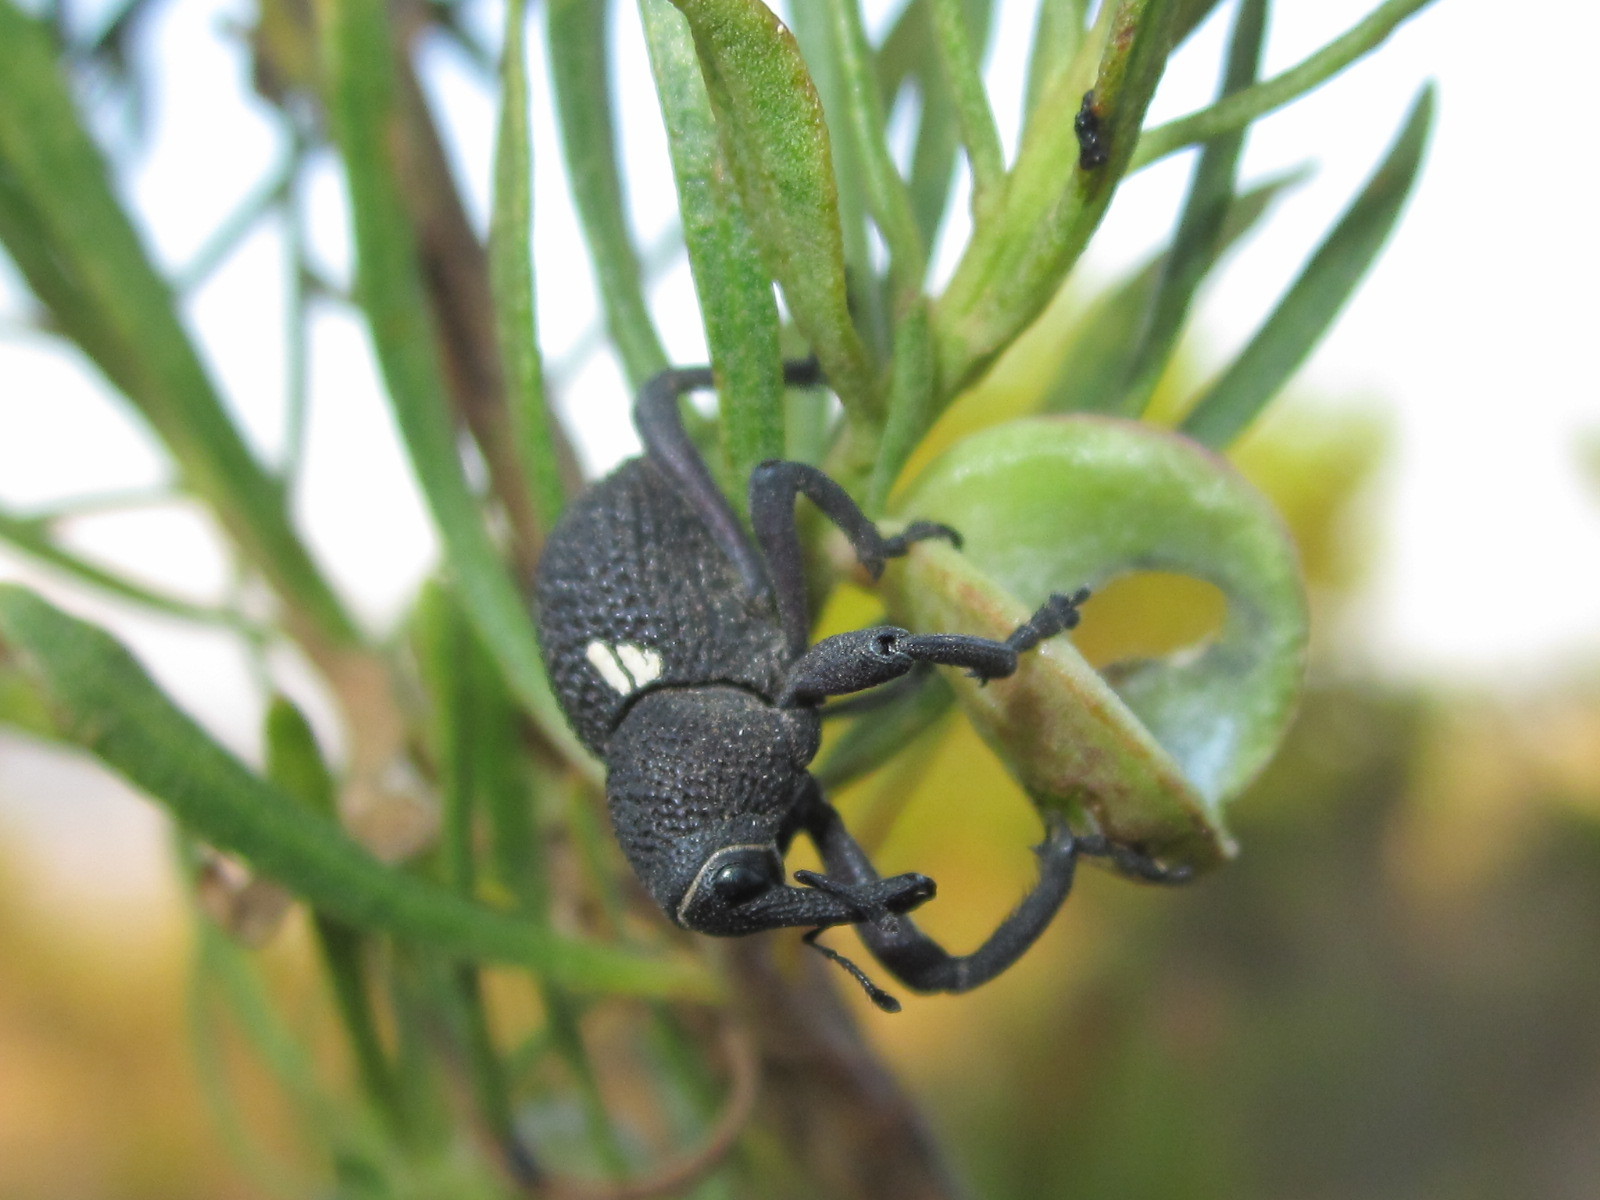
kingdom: Animalia
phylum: Arthropoda
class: Insecta
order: Coleoptera
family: Curculionidae
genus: Rhyephenes
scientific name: Rhyephenes gayi
